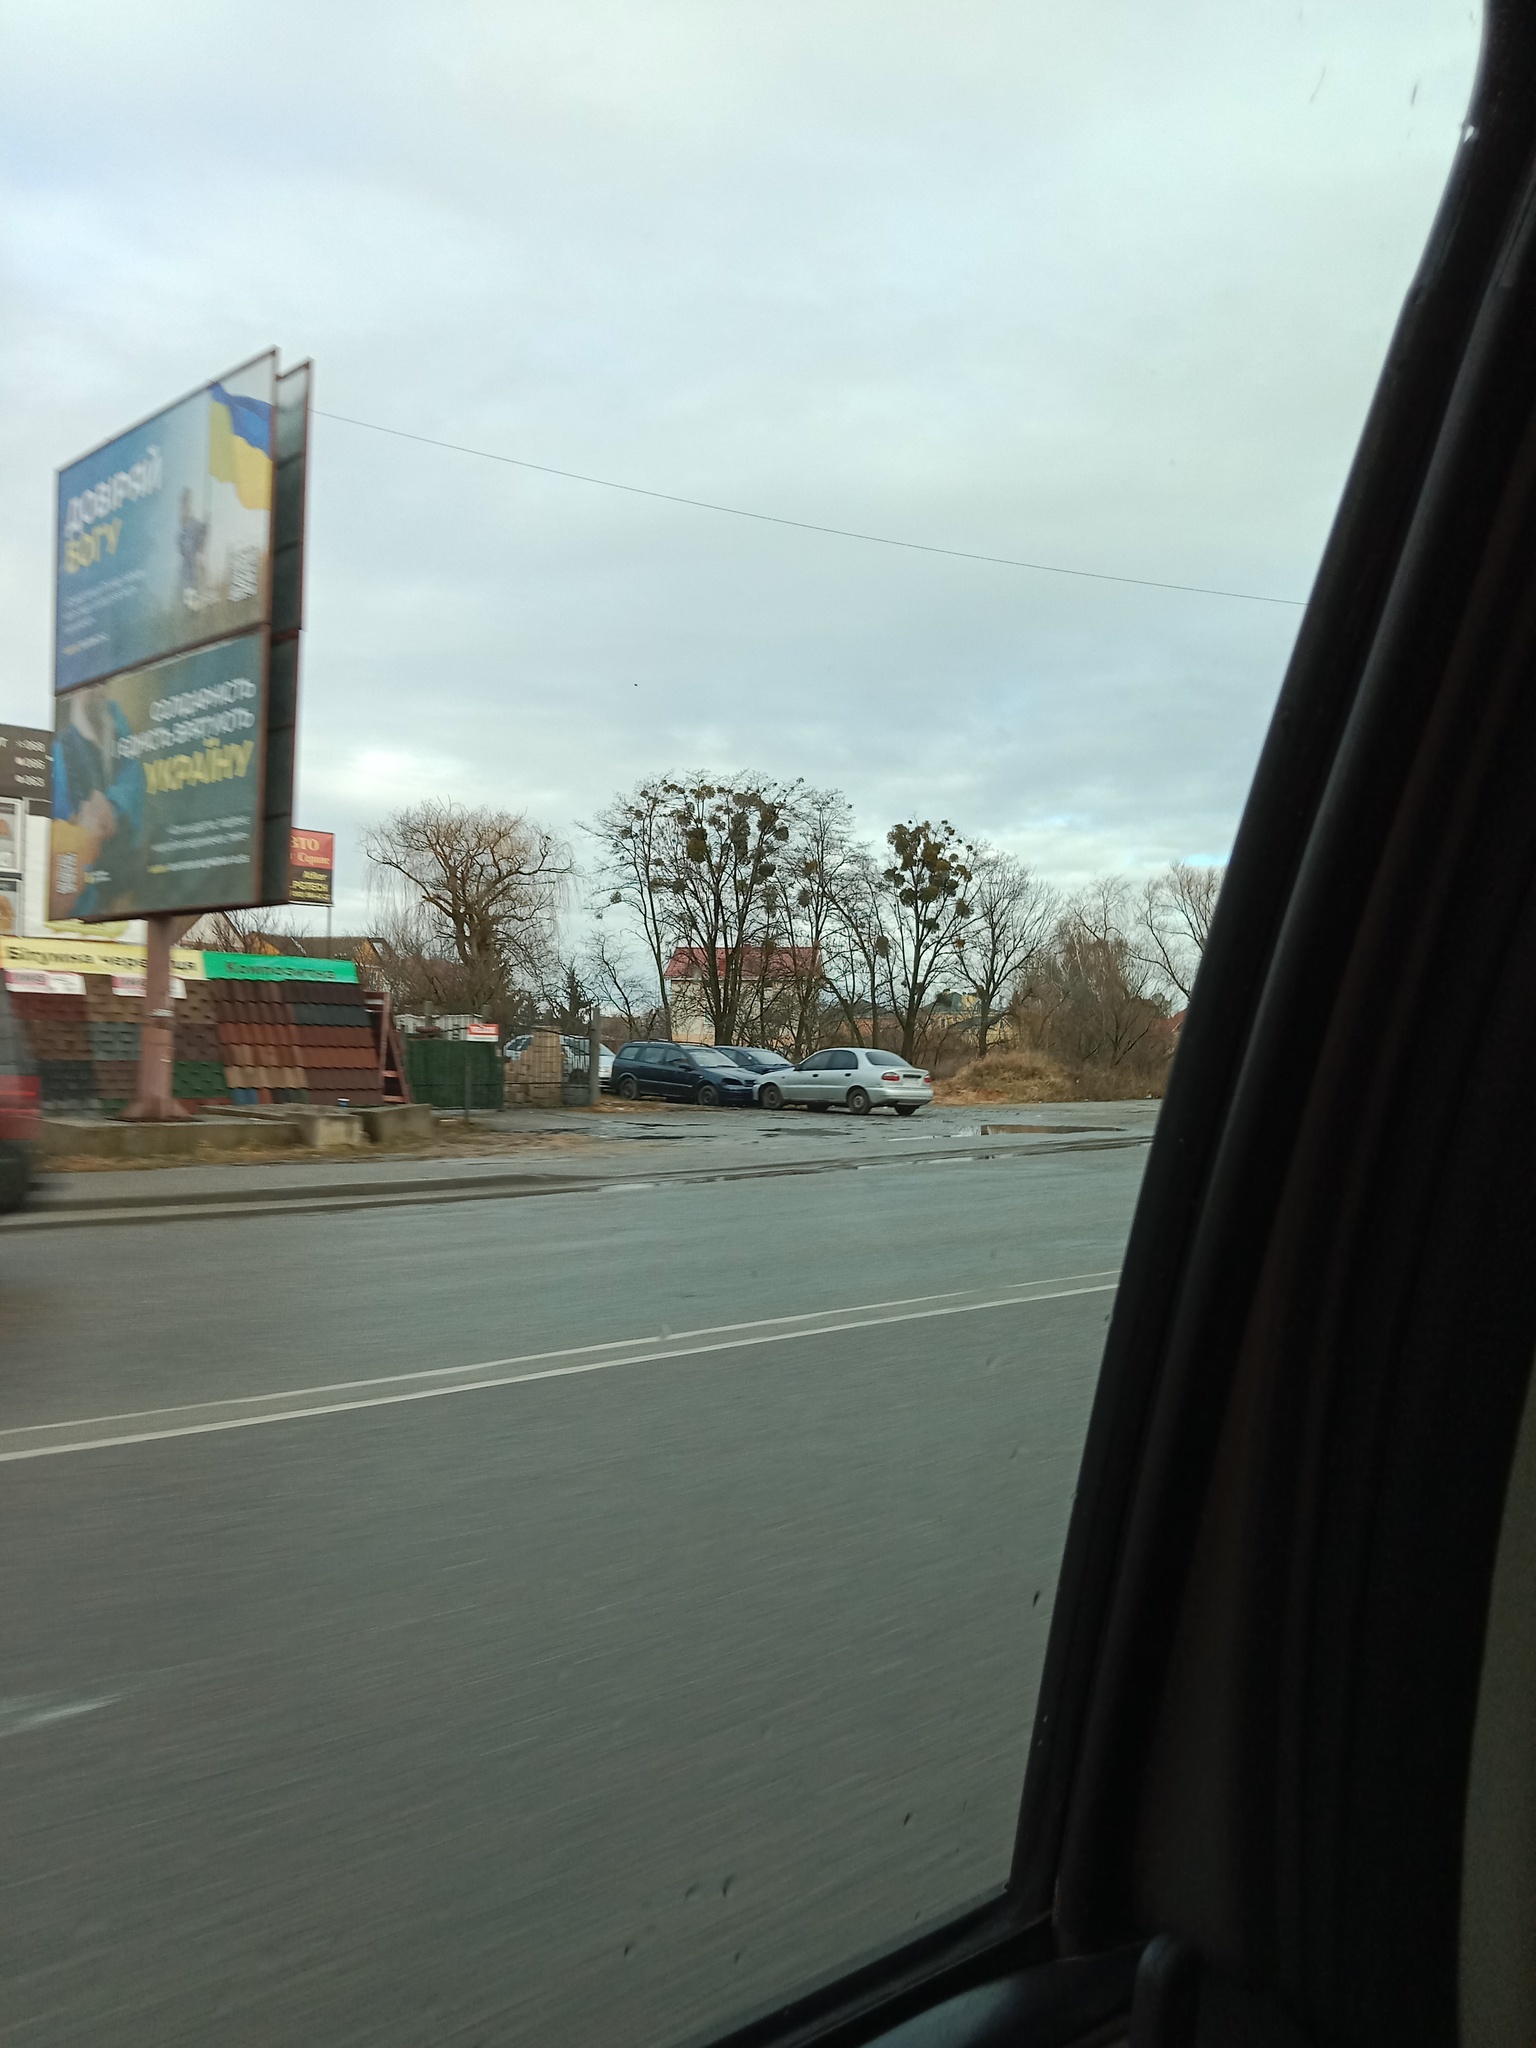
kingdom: Plantae
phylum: Tracheophyta
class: Magnoliopsida
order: Santalales
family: Viscaceae
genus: Viscum
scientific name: Viscum album
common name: Mistletoe
